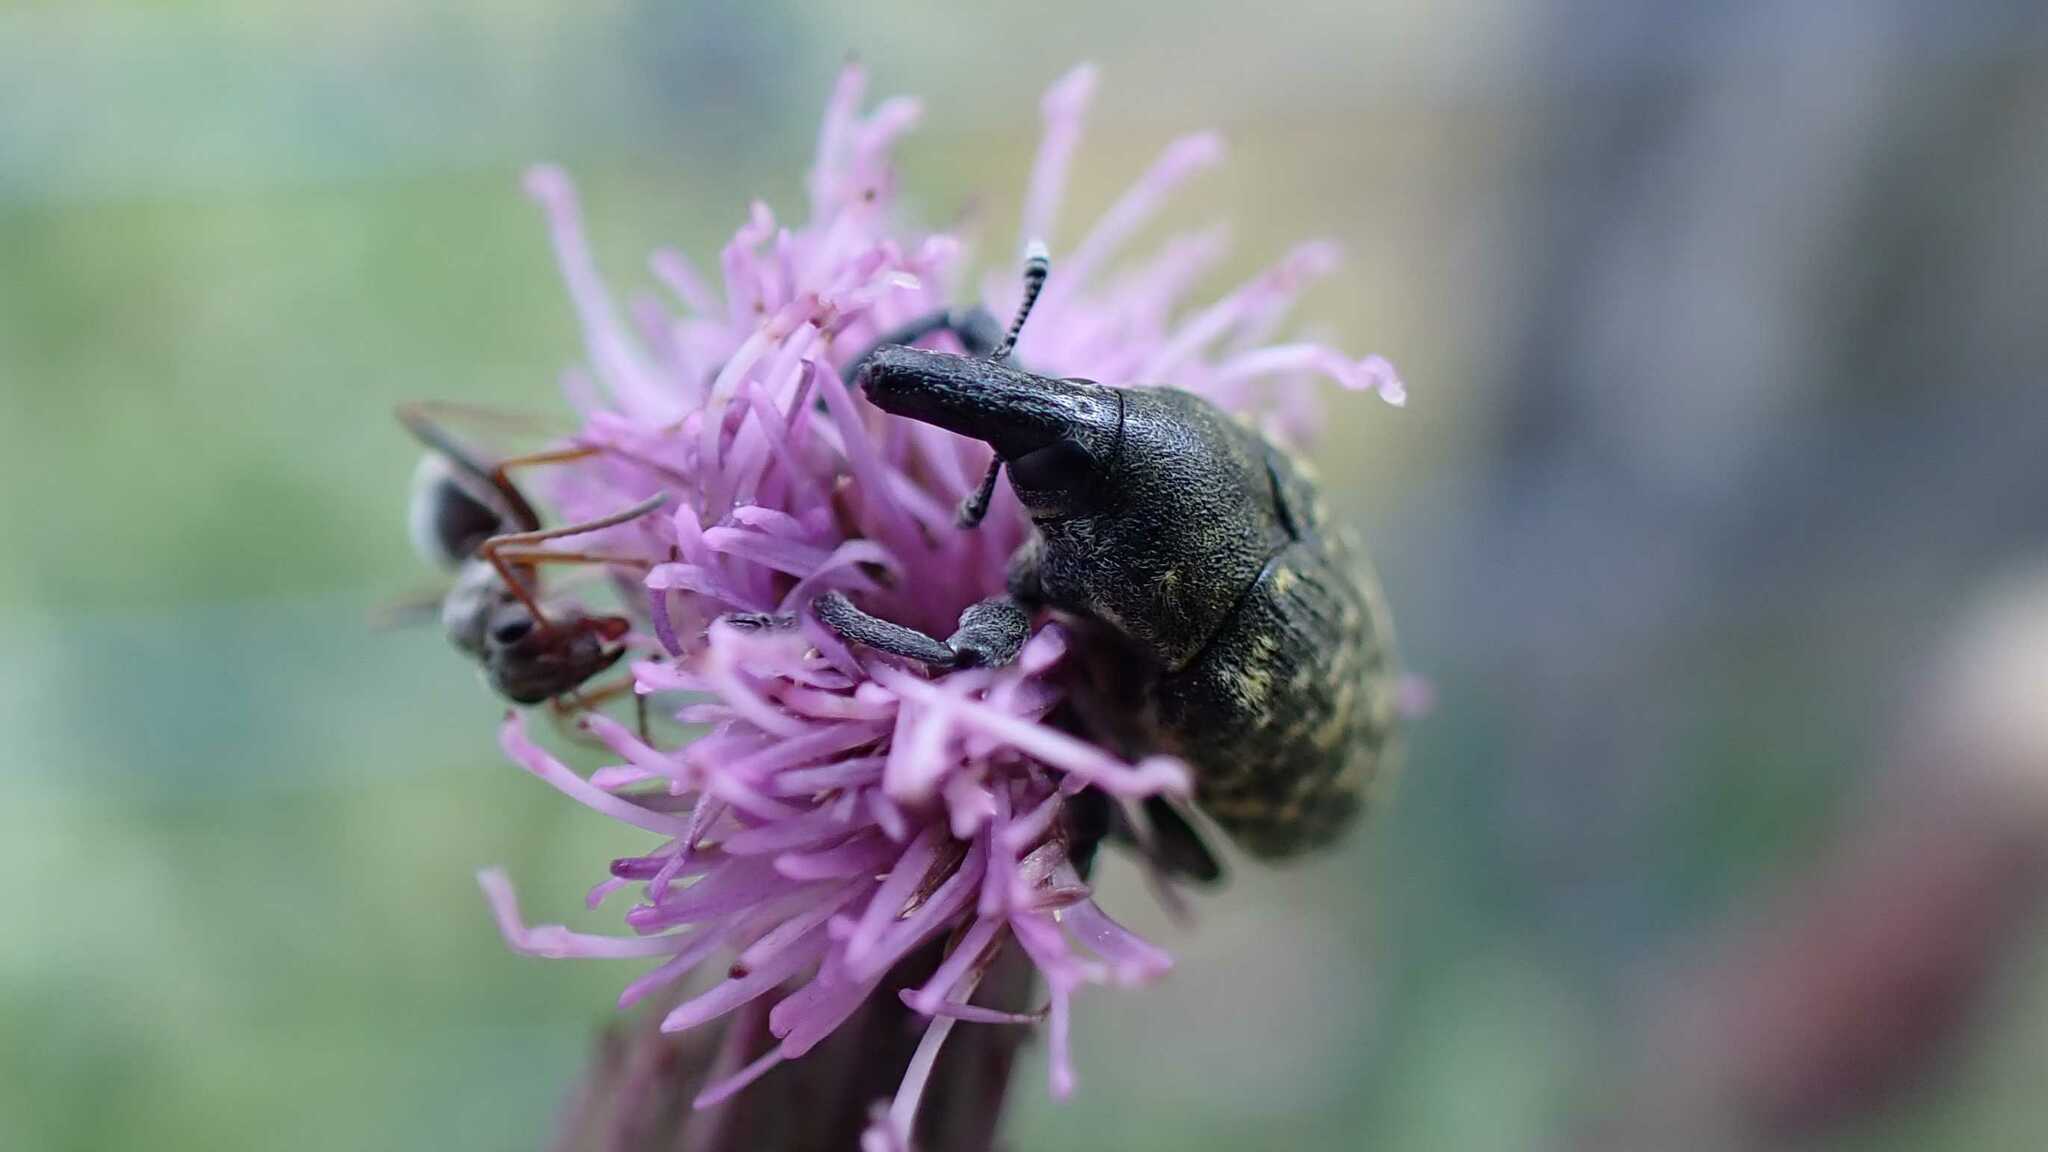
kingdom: Animalia
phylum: Arthropoda
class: Insecta
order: Coleoptera
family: Curculionidae
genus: Larinus
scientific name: Larinus turbinatus
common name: Weevil
